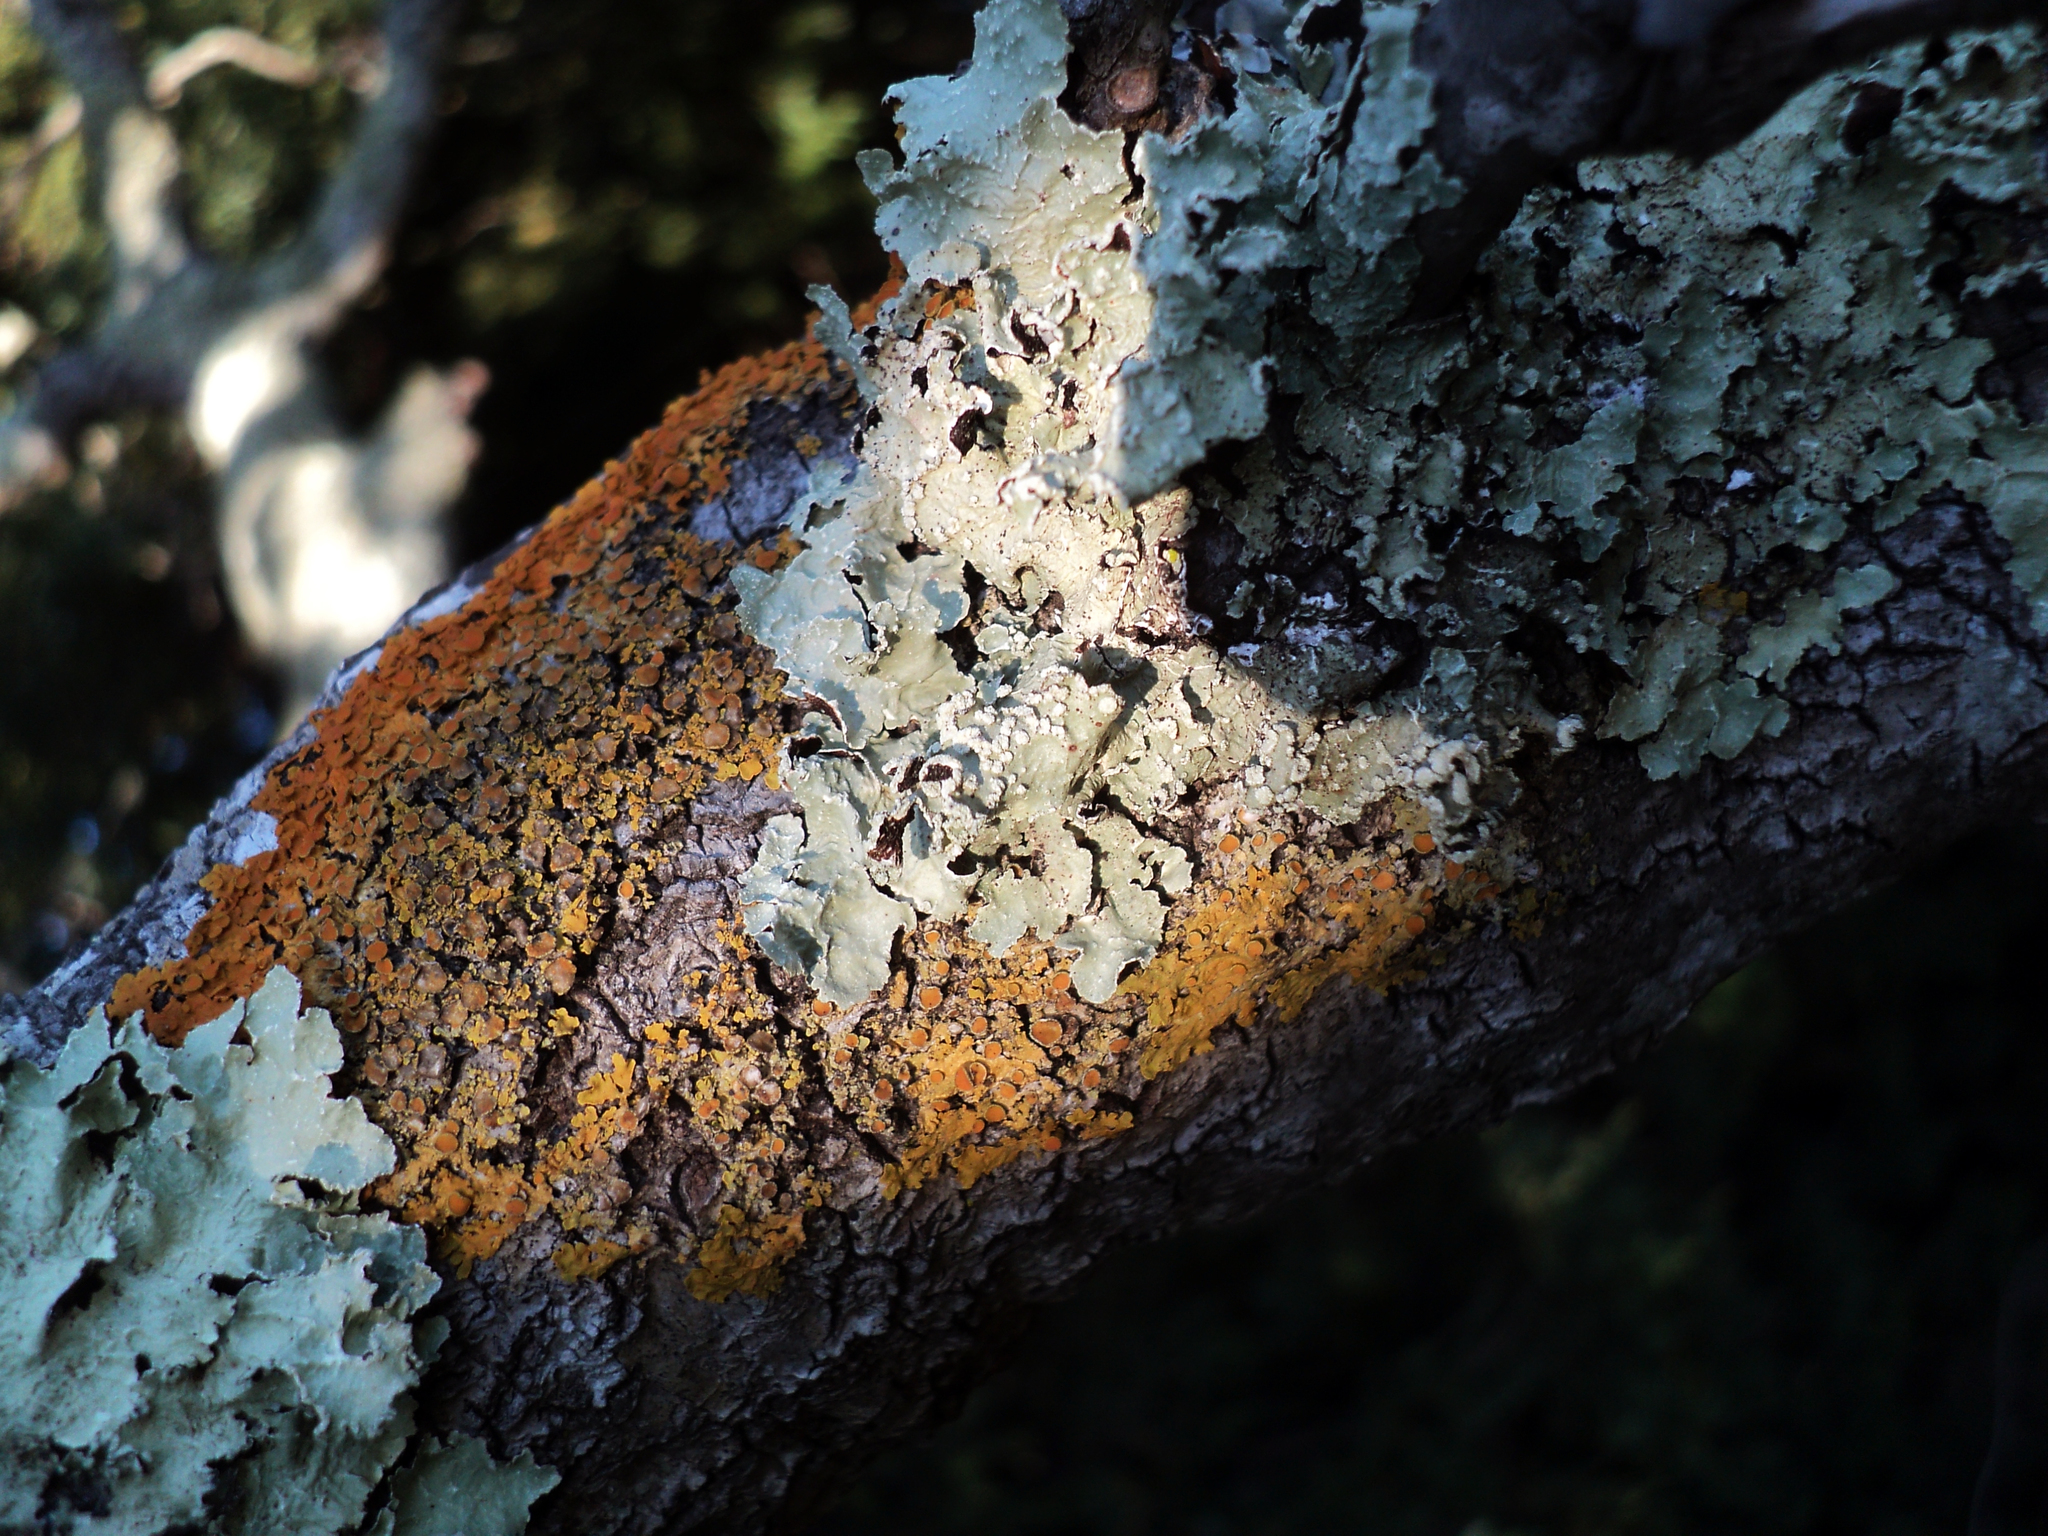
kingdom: Fungi
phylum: Ascomycota
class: Lecanoromycetes
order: Teloschistales
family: Teloschistaceae
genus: Xanthoria
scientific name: Xanthoria parietina
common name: Common orange lichen
